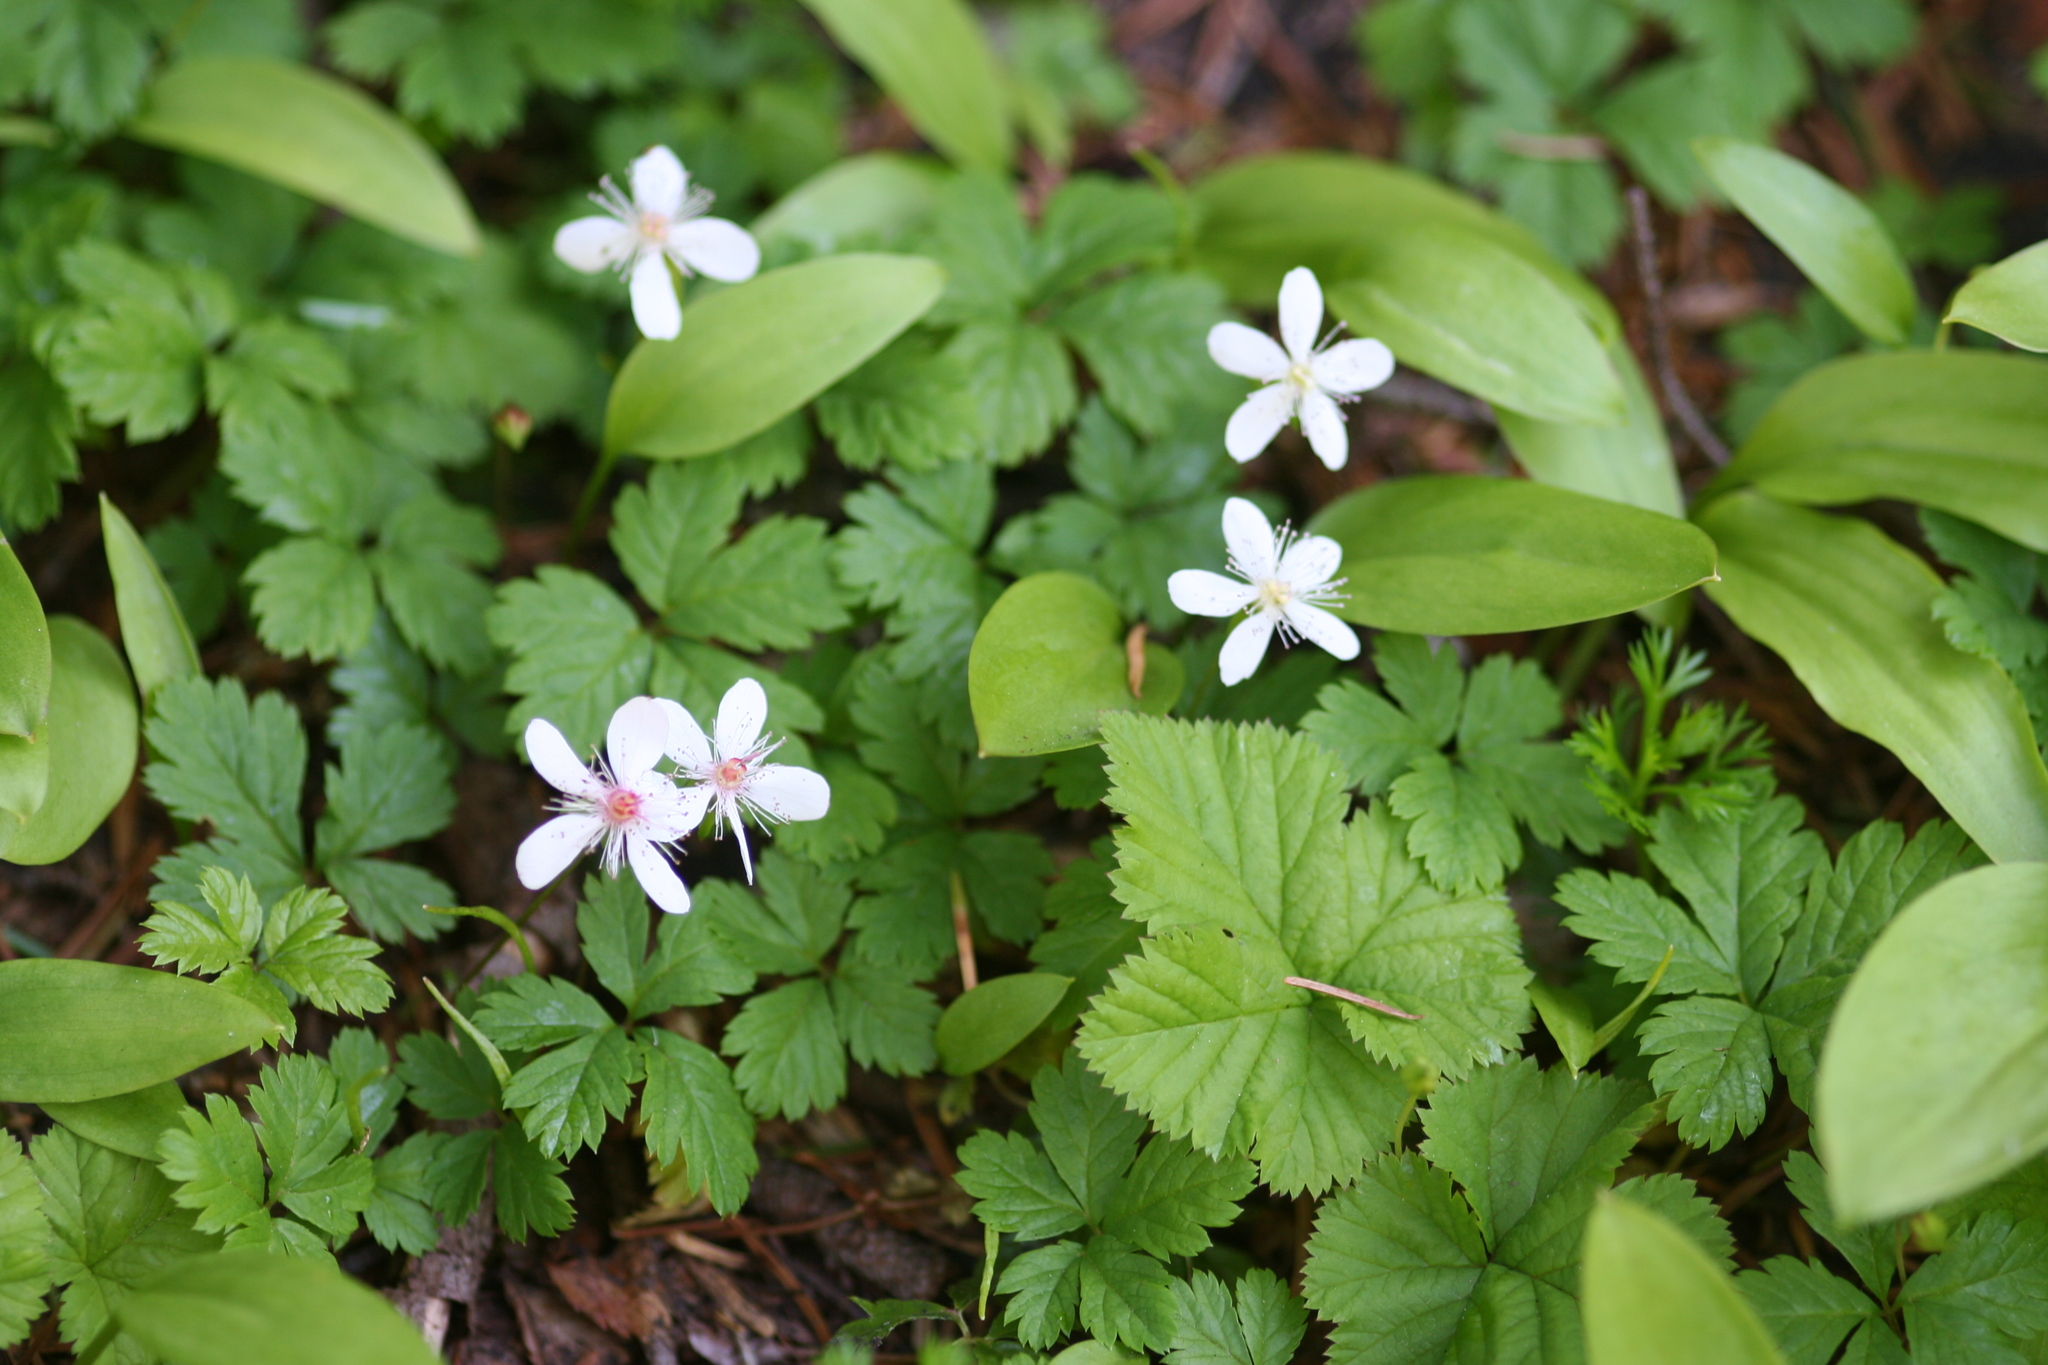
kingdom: Plantae
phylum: Tracheophyta
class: Magnoliopsida
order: Rosales
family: Rosaceae
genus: Rubus
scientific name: Rubus pedatus
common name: Creeping raspberry
